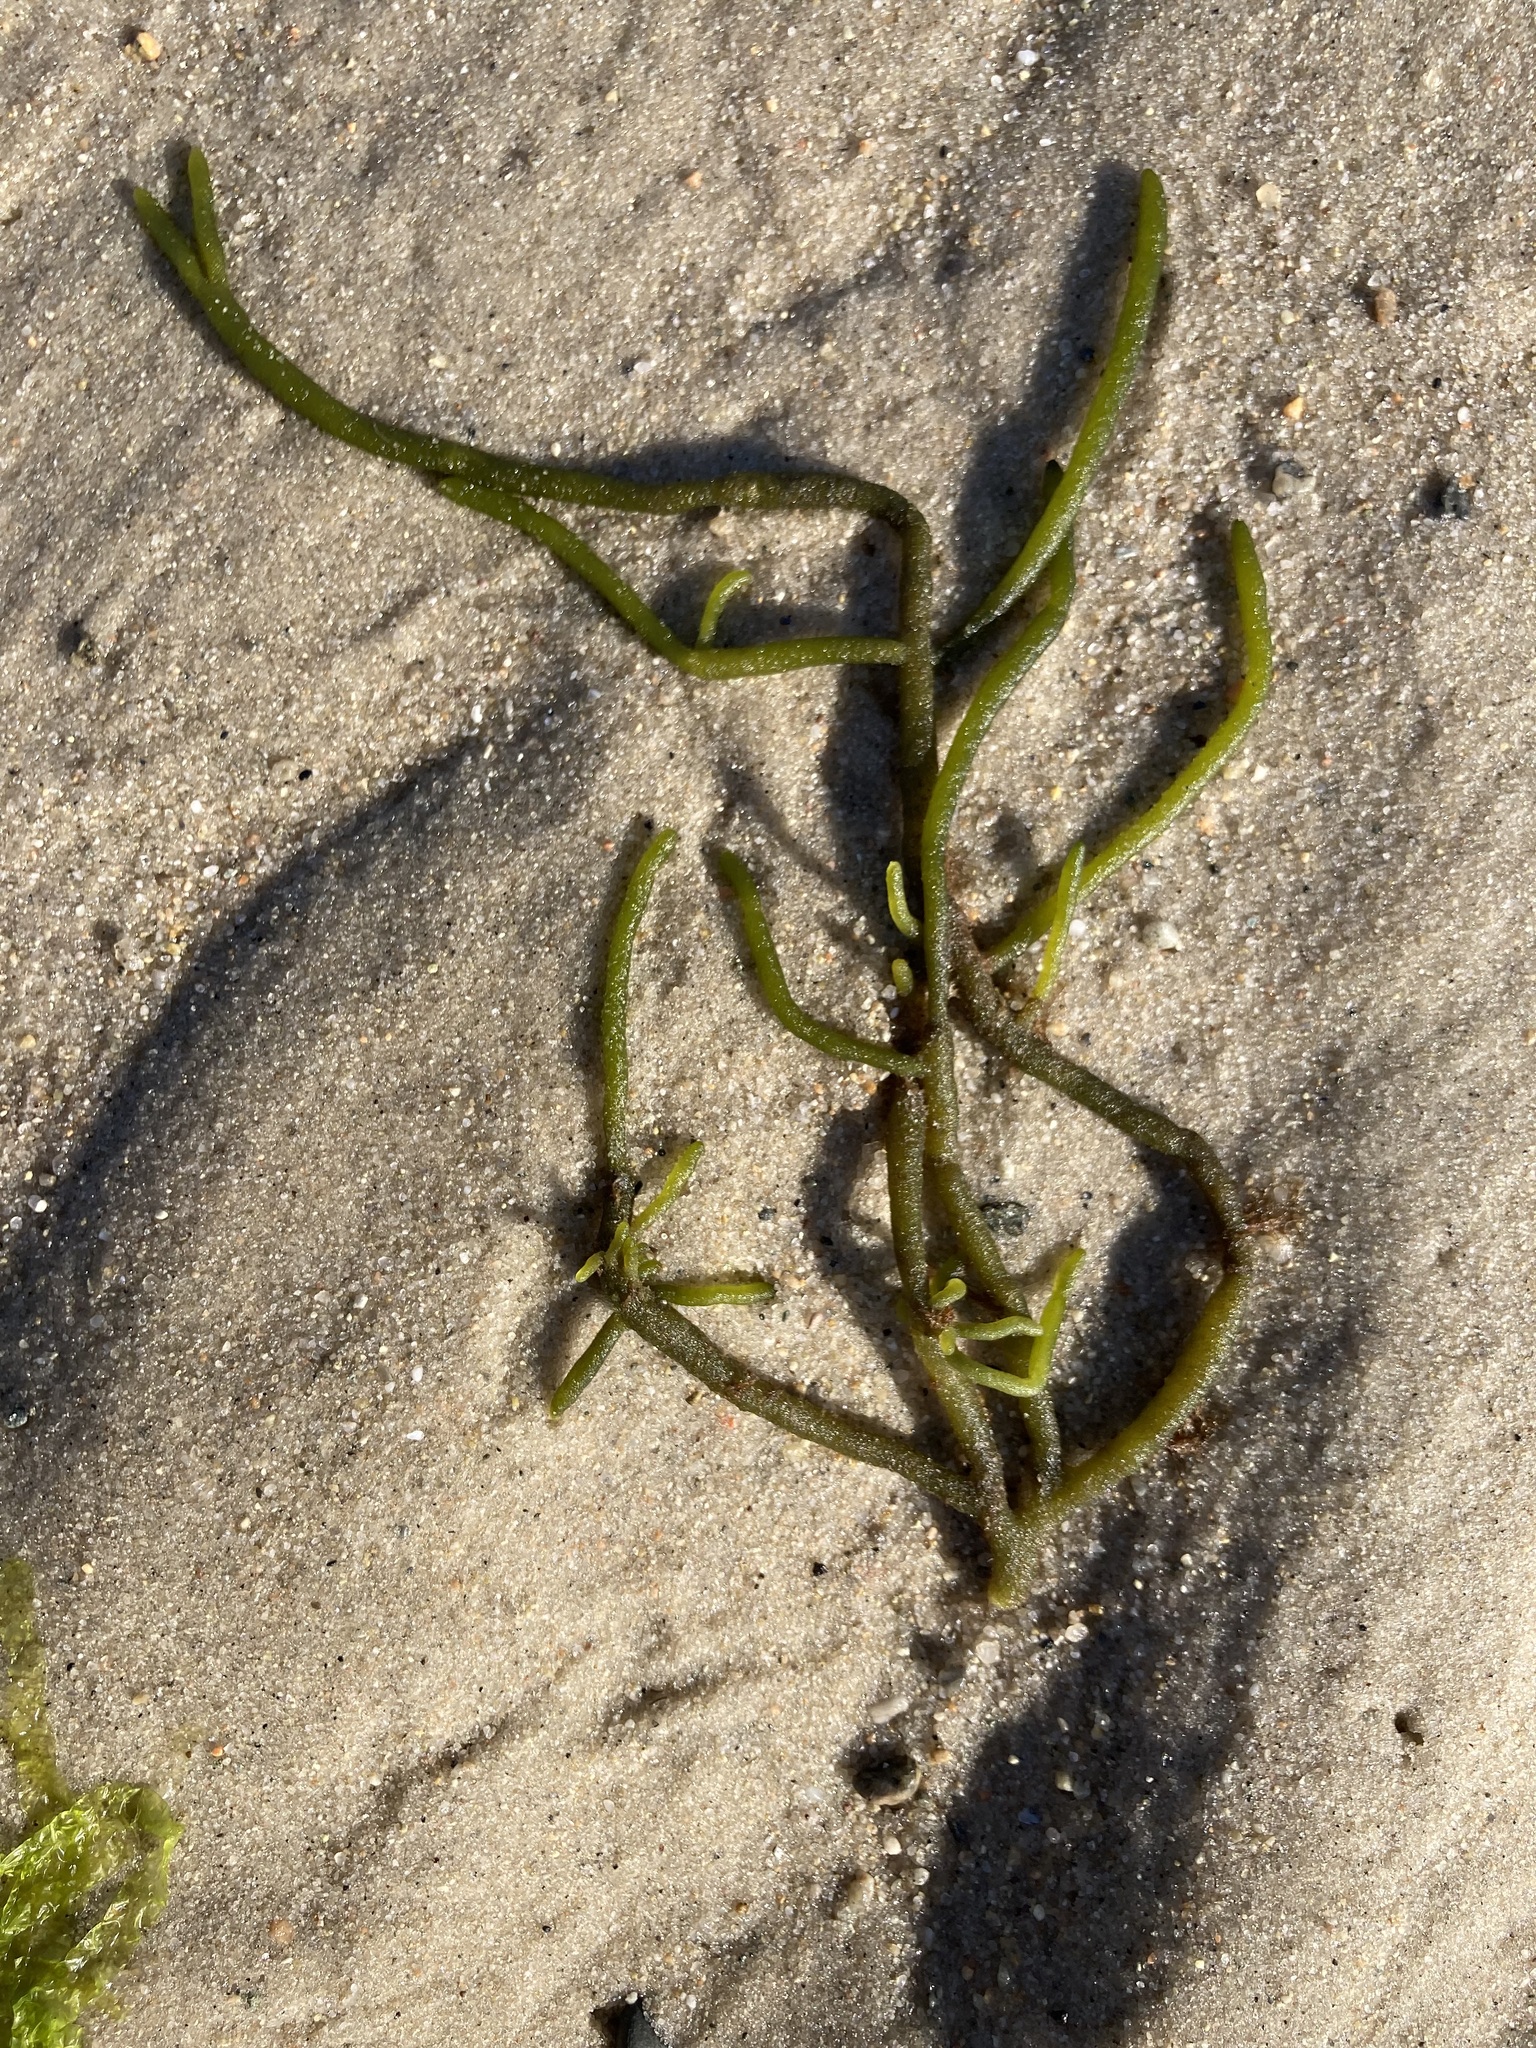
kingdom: Plantae
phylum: Chlorophyta
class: Ulvophyceae
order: Bryopsidales
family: Codiaceae
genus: Codium
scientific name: Codium fragile
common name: Dead man's fingers
